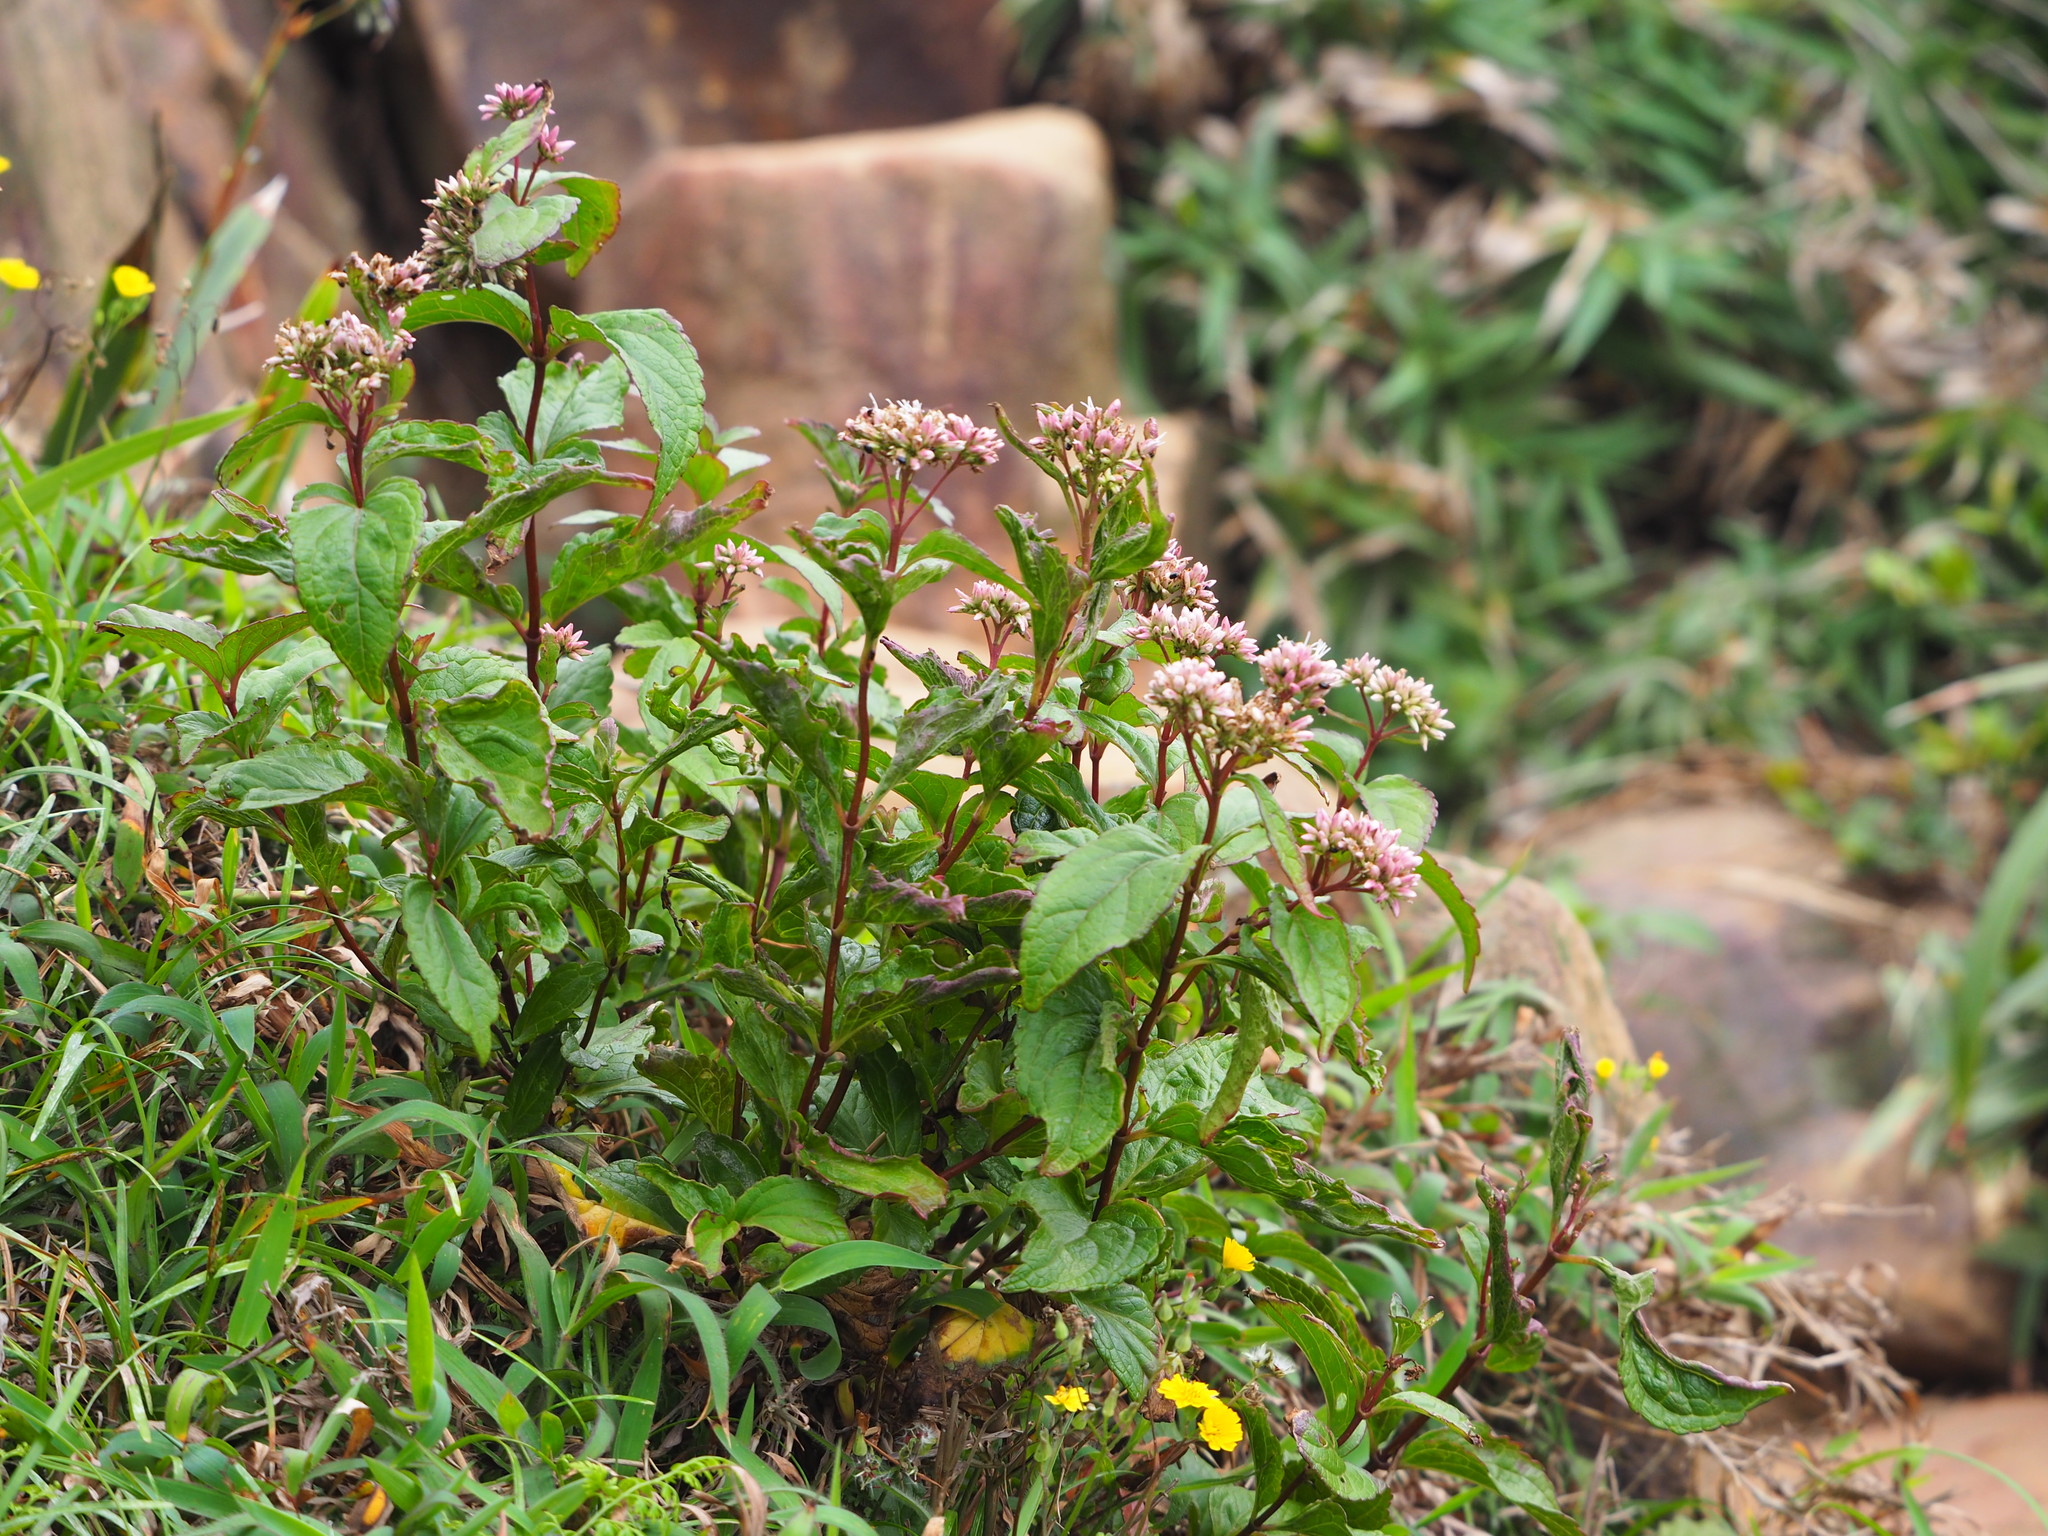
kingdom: Plantae
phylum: Tracheophyta
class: Magnoliopsida
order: Asterales
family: Asteraceae
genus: Eupatorium
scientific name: Eupatorium luchuense
